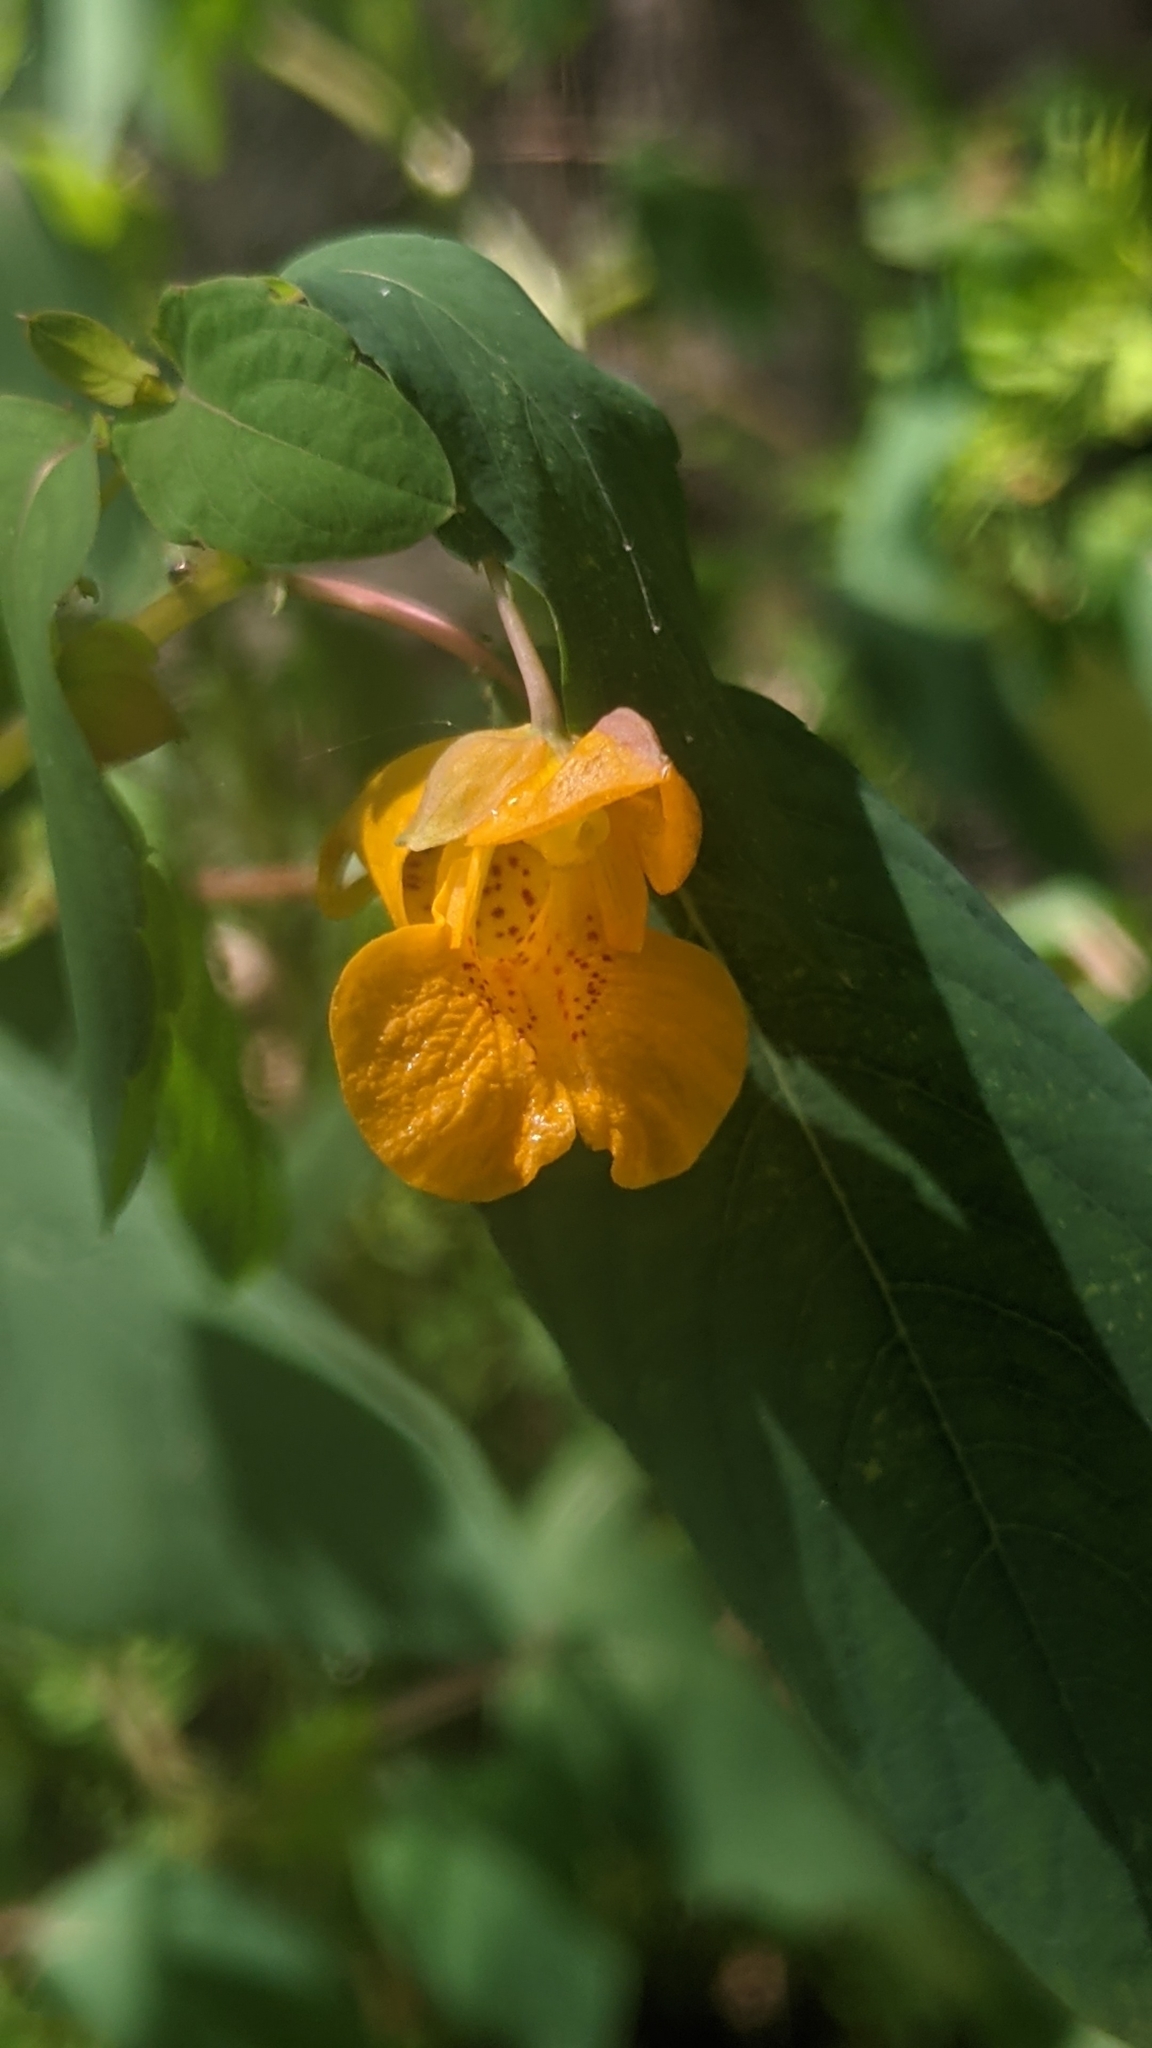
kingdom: Plantae
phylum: Tracheophyta
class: Magnoliopsida
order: Ericales
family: Balsaminaceae
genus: Impatiens
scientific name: Impatiens capensis
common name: Orange balsam
